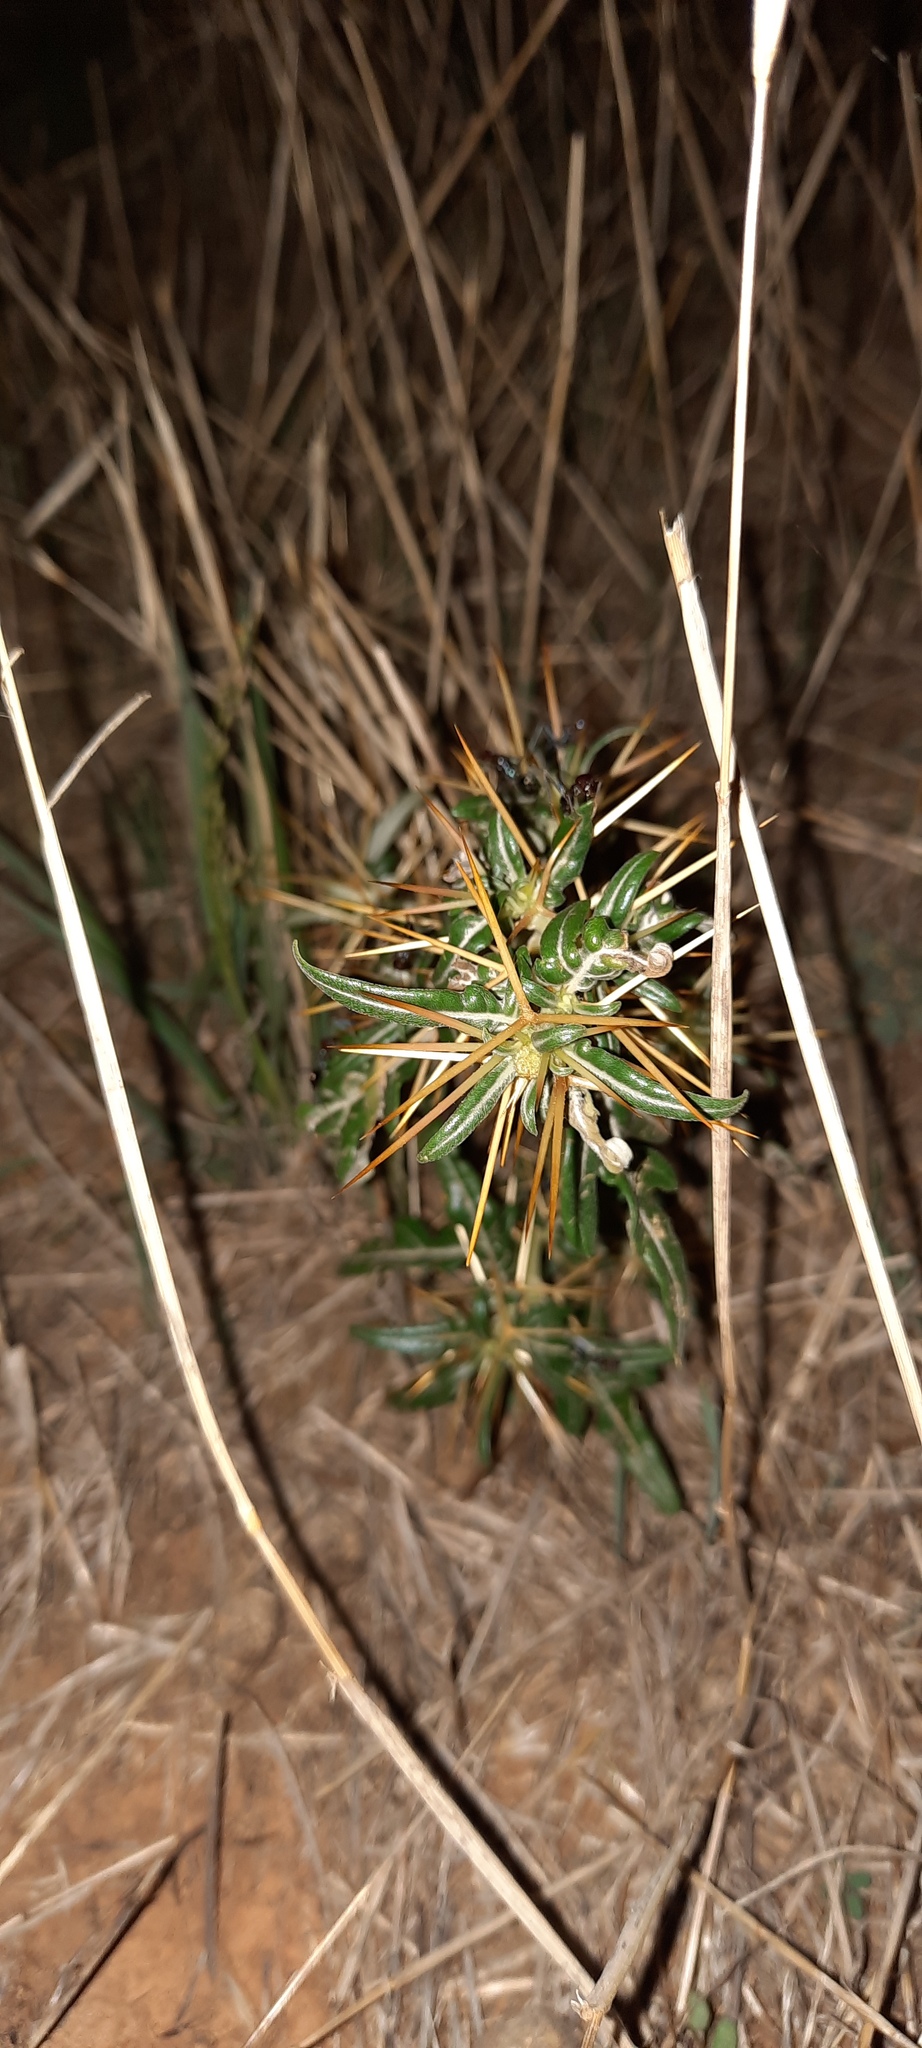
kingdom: Plantae
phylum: Tracheophyta
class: Magnoliopsida
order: Asterales
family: Asteraceae
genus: Xanthium
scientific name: Xanthium spinosum
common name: Spiny cocklebur
